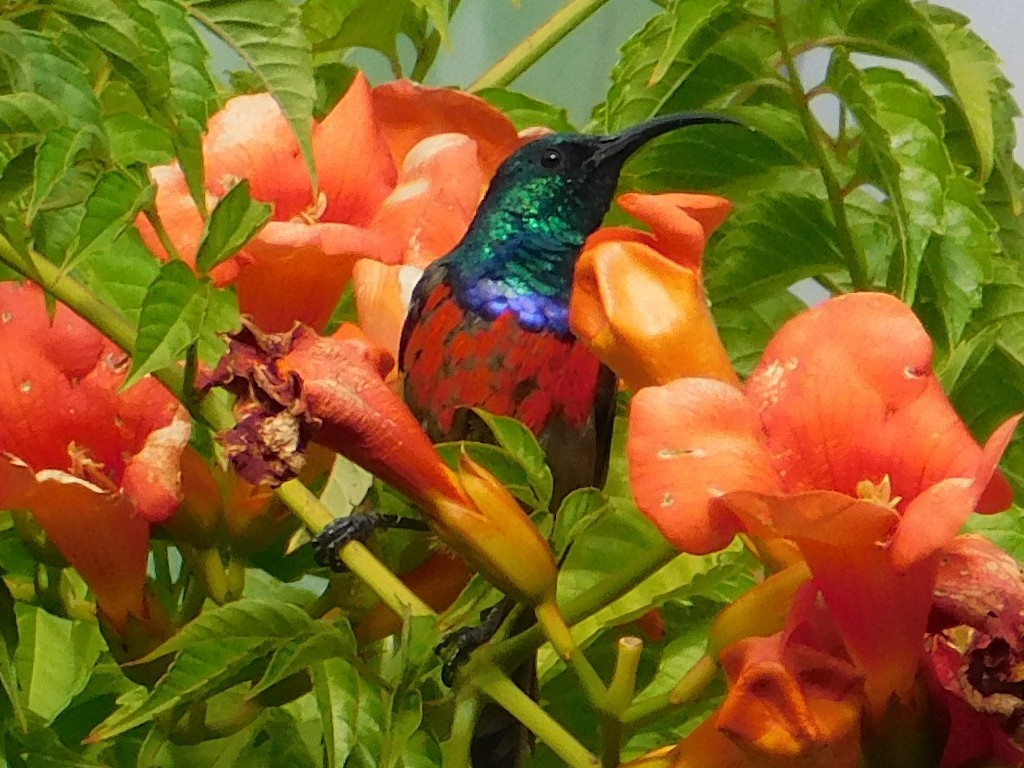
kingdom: Animalia
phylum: Chordata
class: Aves
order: Passeriformes
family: Nectariniidae
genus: Cinnyris
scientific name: Cinnyris afer
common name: Greater double-collared sunbird
